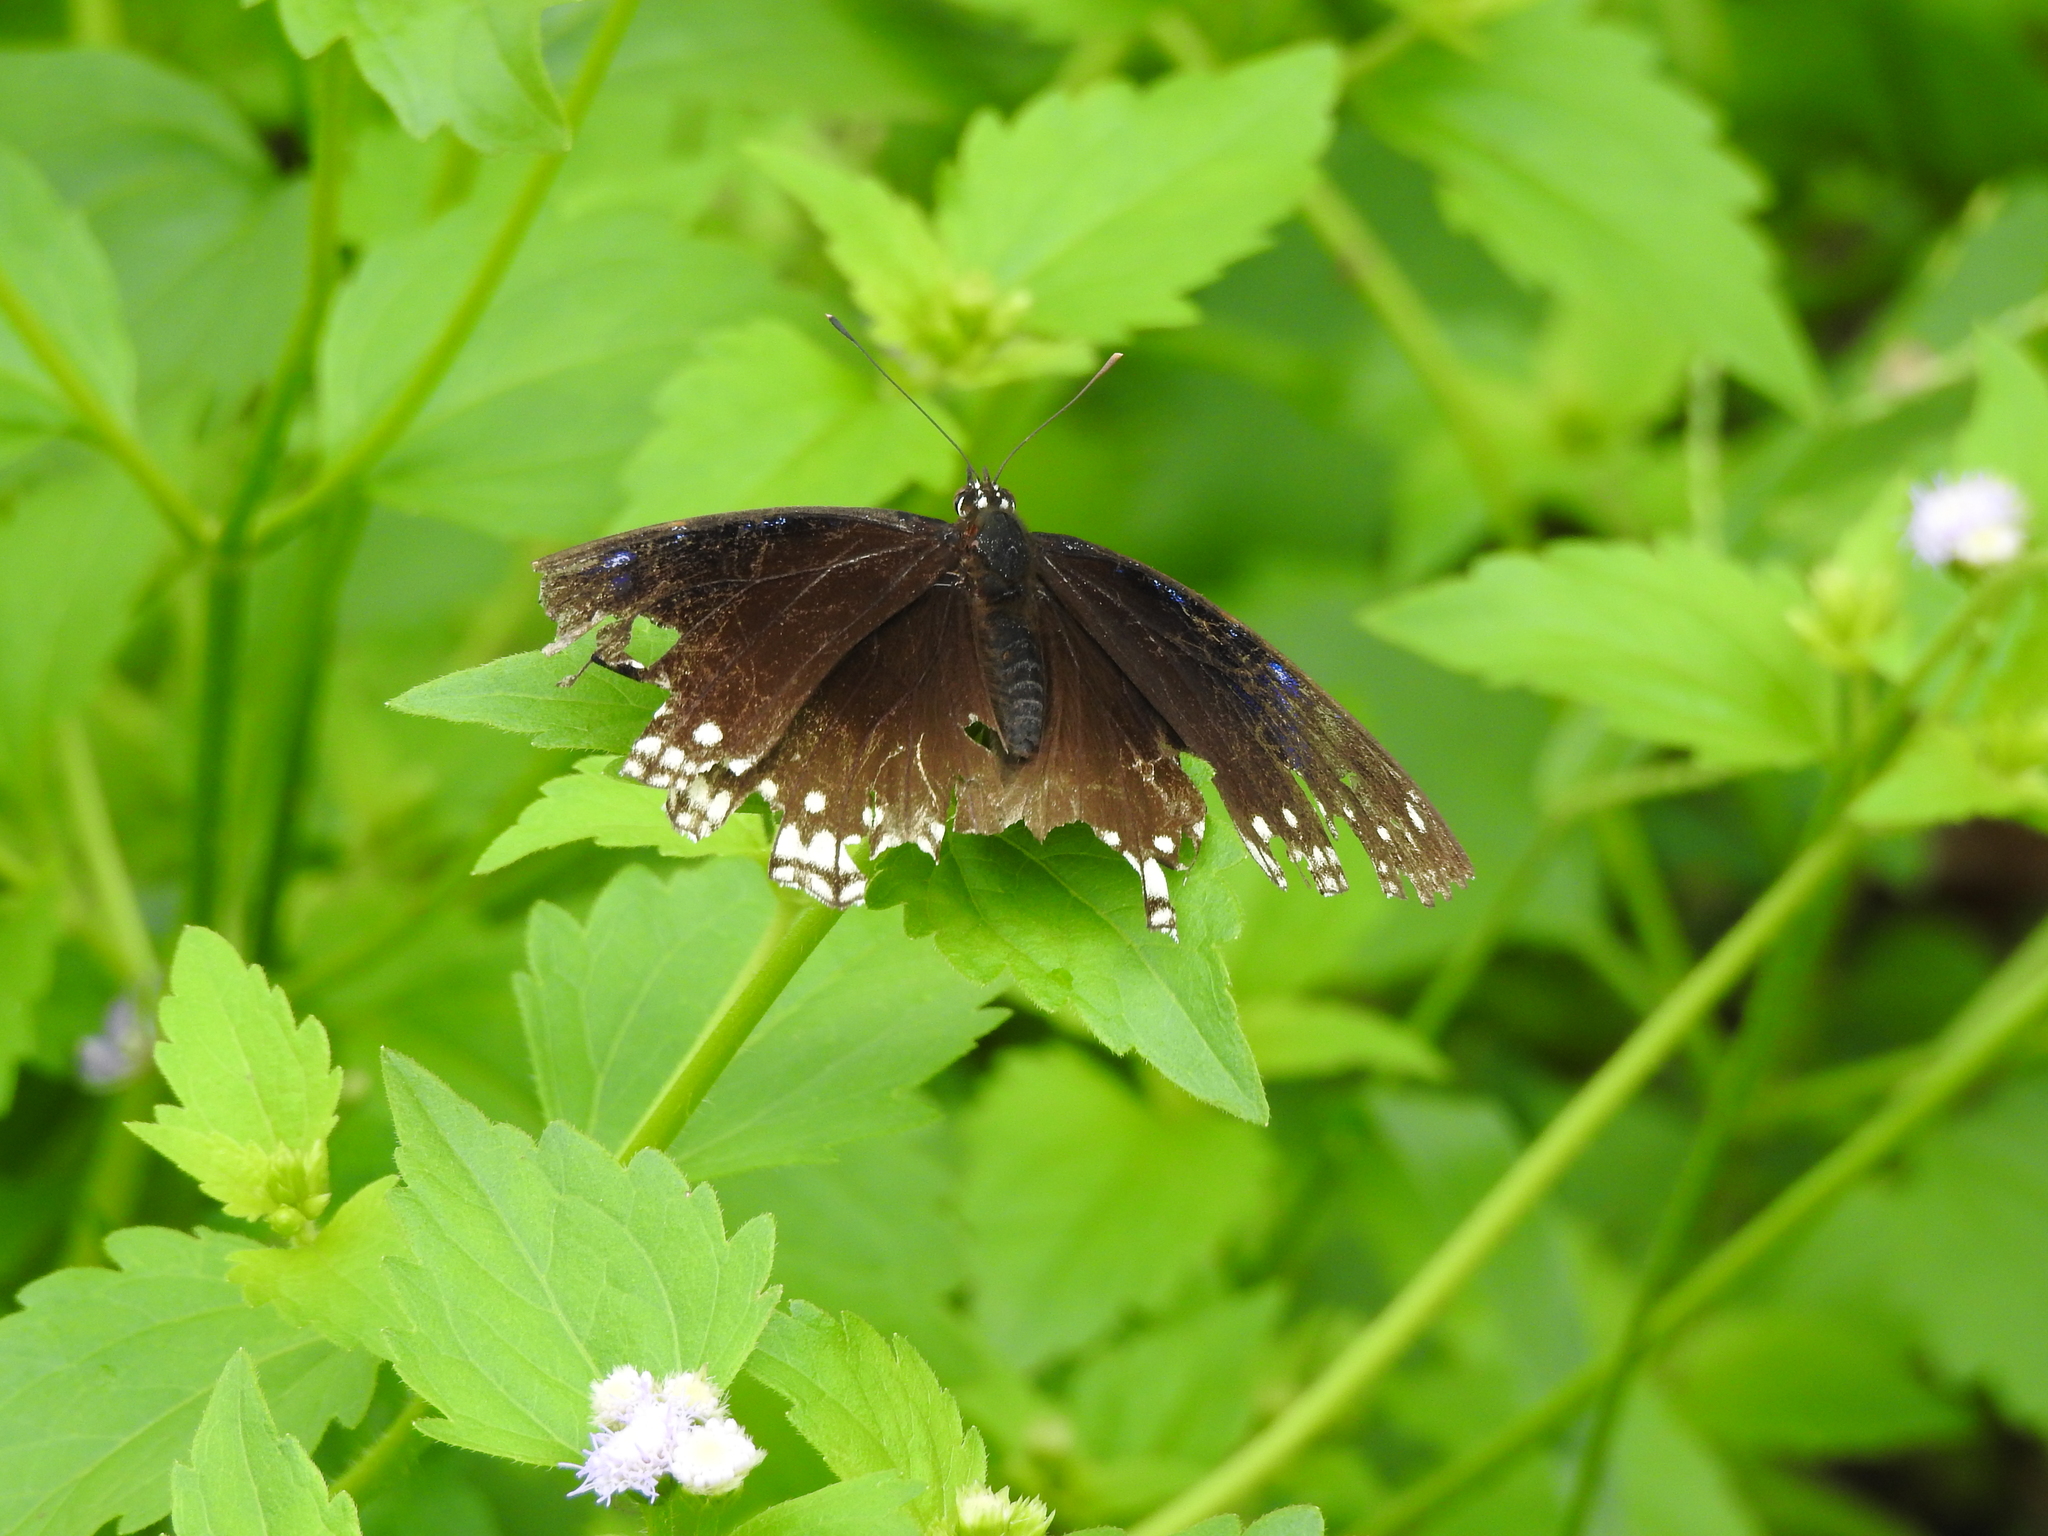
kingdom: Animalia
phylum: Arthropoda
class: Insecta
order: Lepidoptera
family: Nymphalidae
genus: Hypolimnas
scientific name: Hypolimnas bolina
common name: Great eggfly
